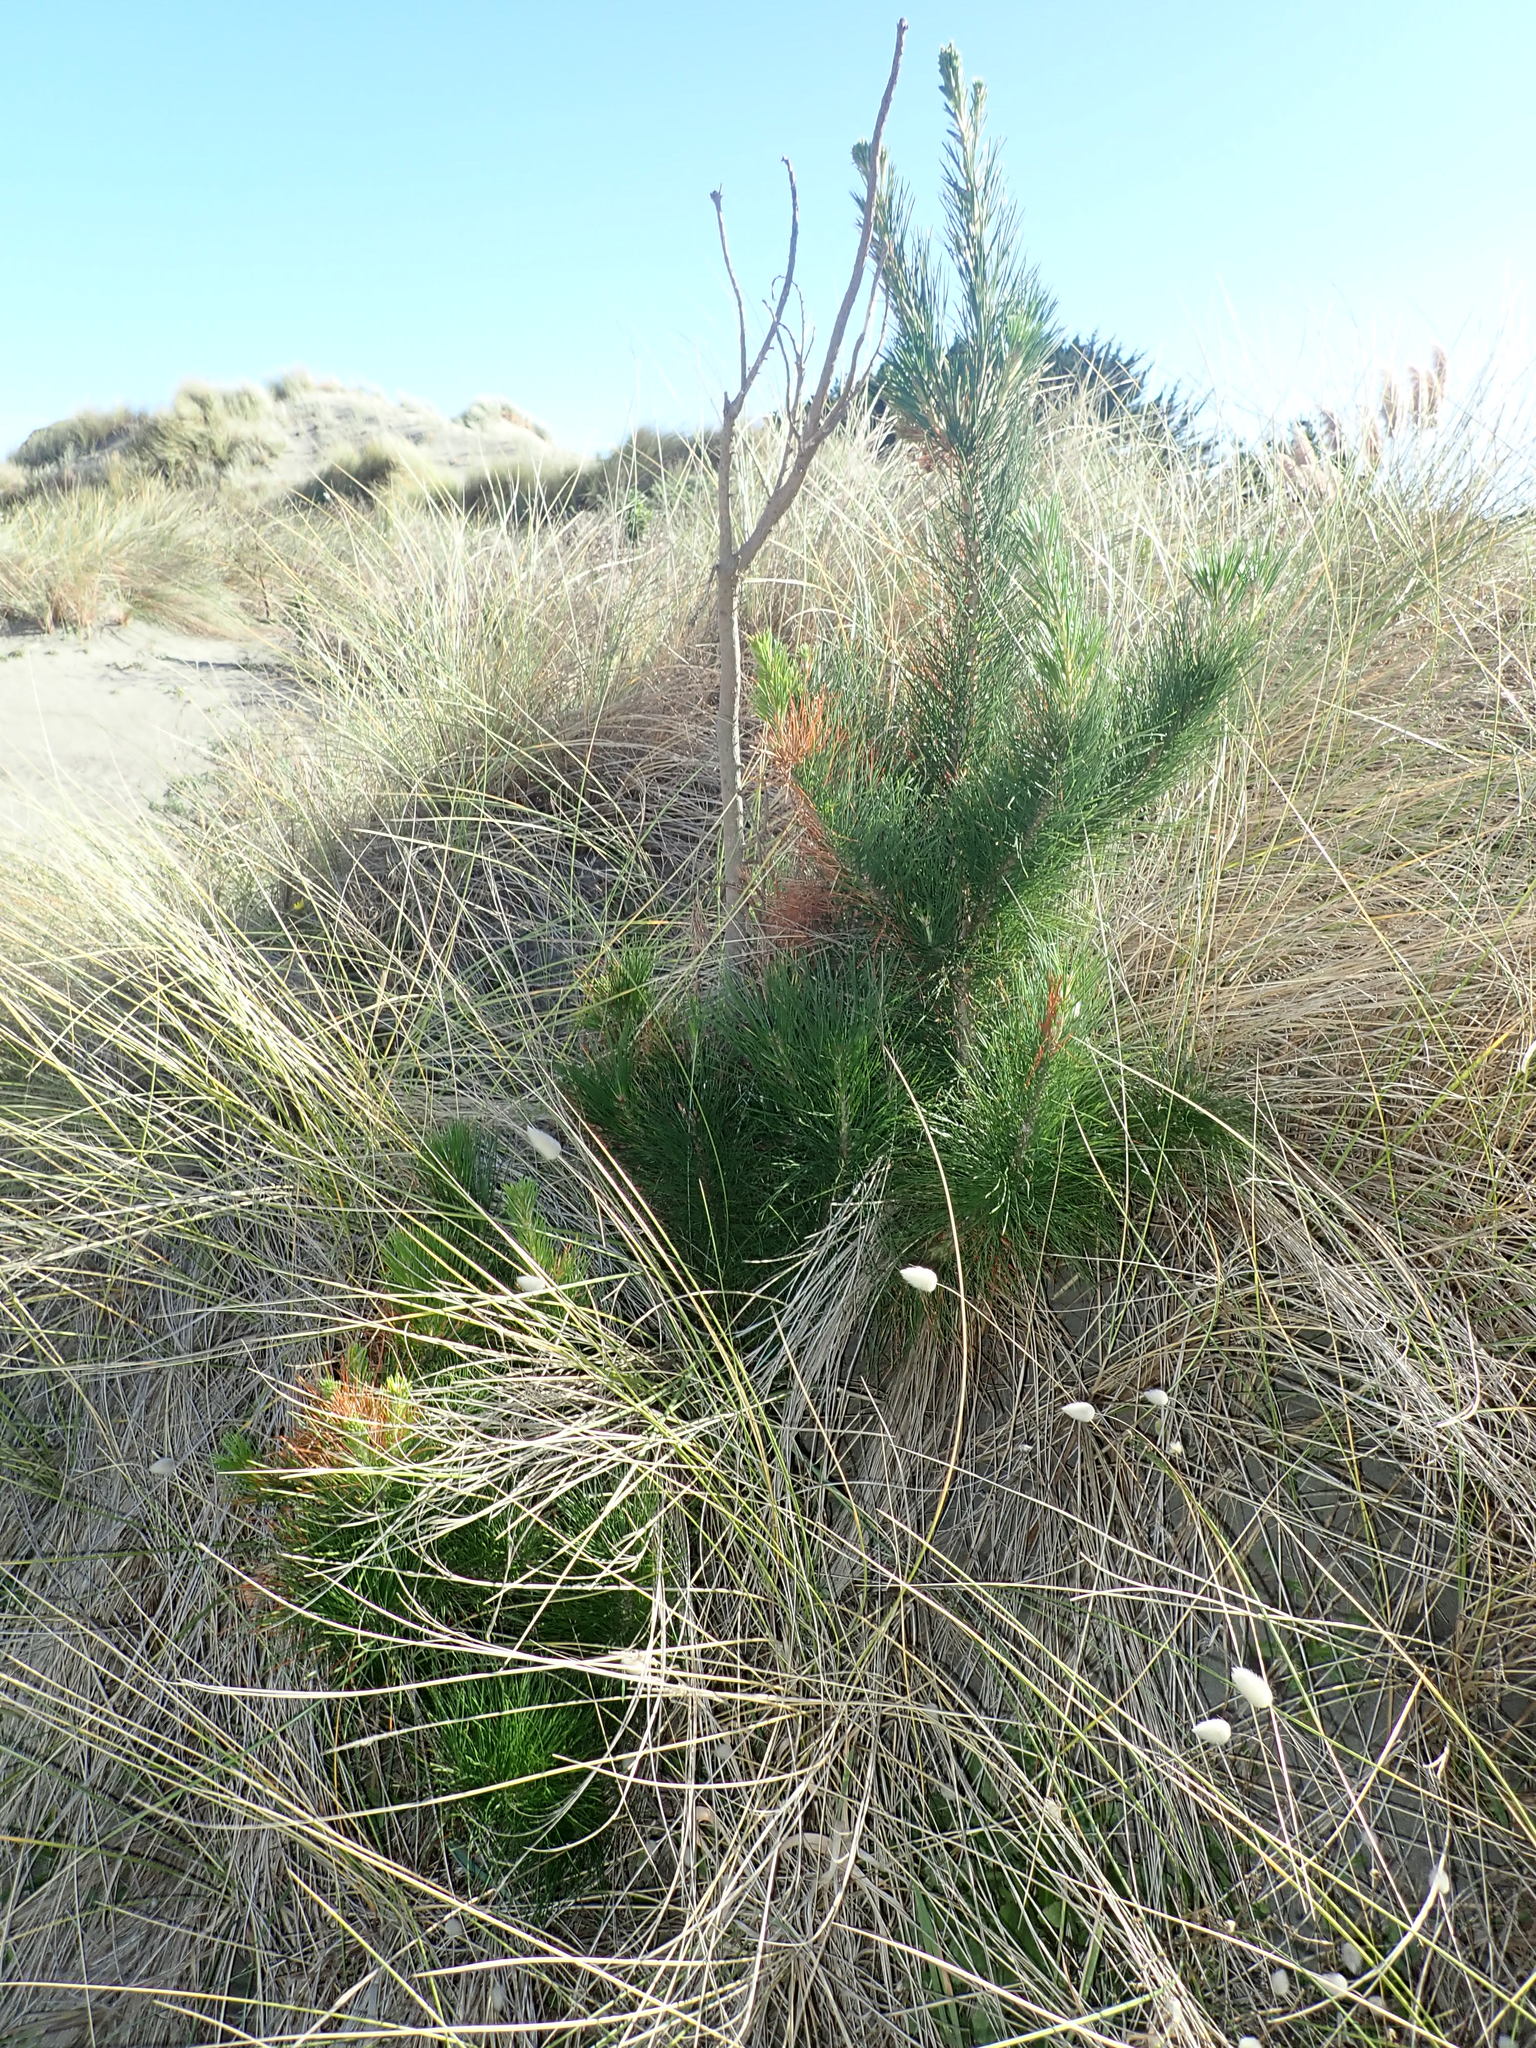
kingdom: Plantae
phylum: Tracheophyta
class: Pinopsida
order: Pinales
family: Pinaceae
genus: Pinus
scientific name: Pinus radiata
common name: Monterey pine
